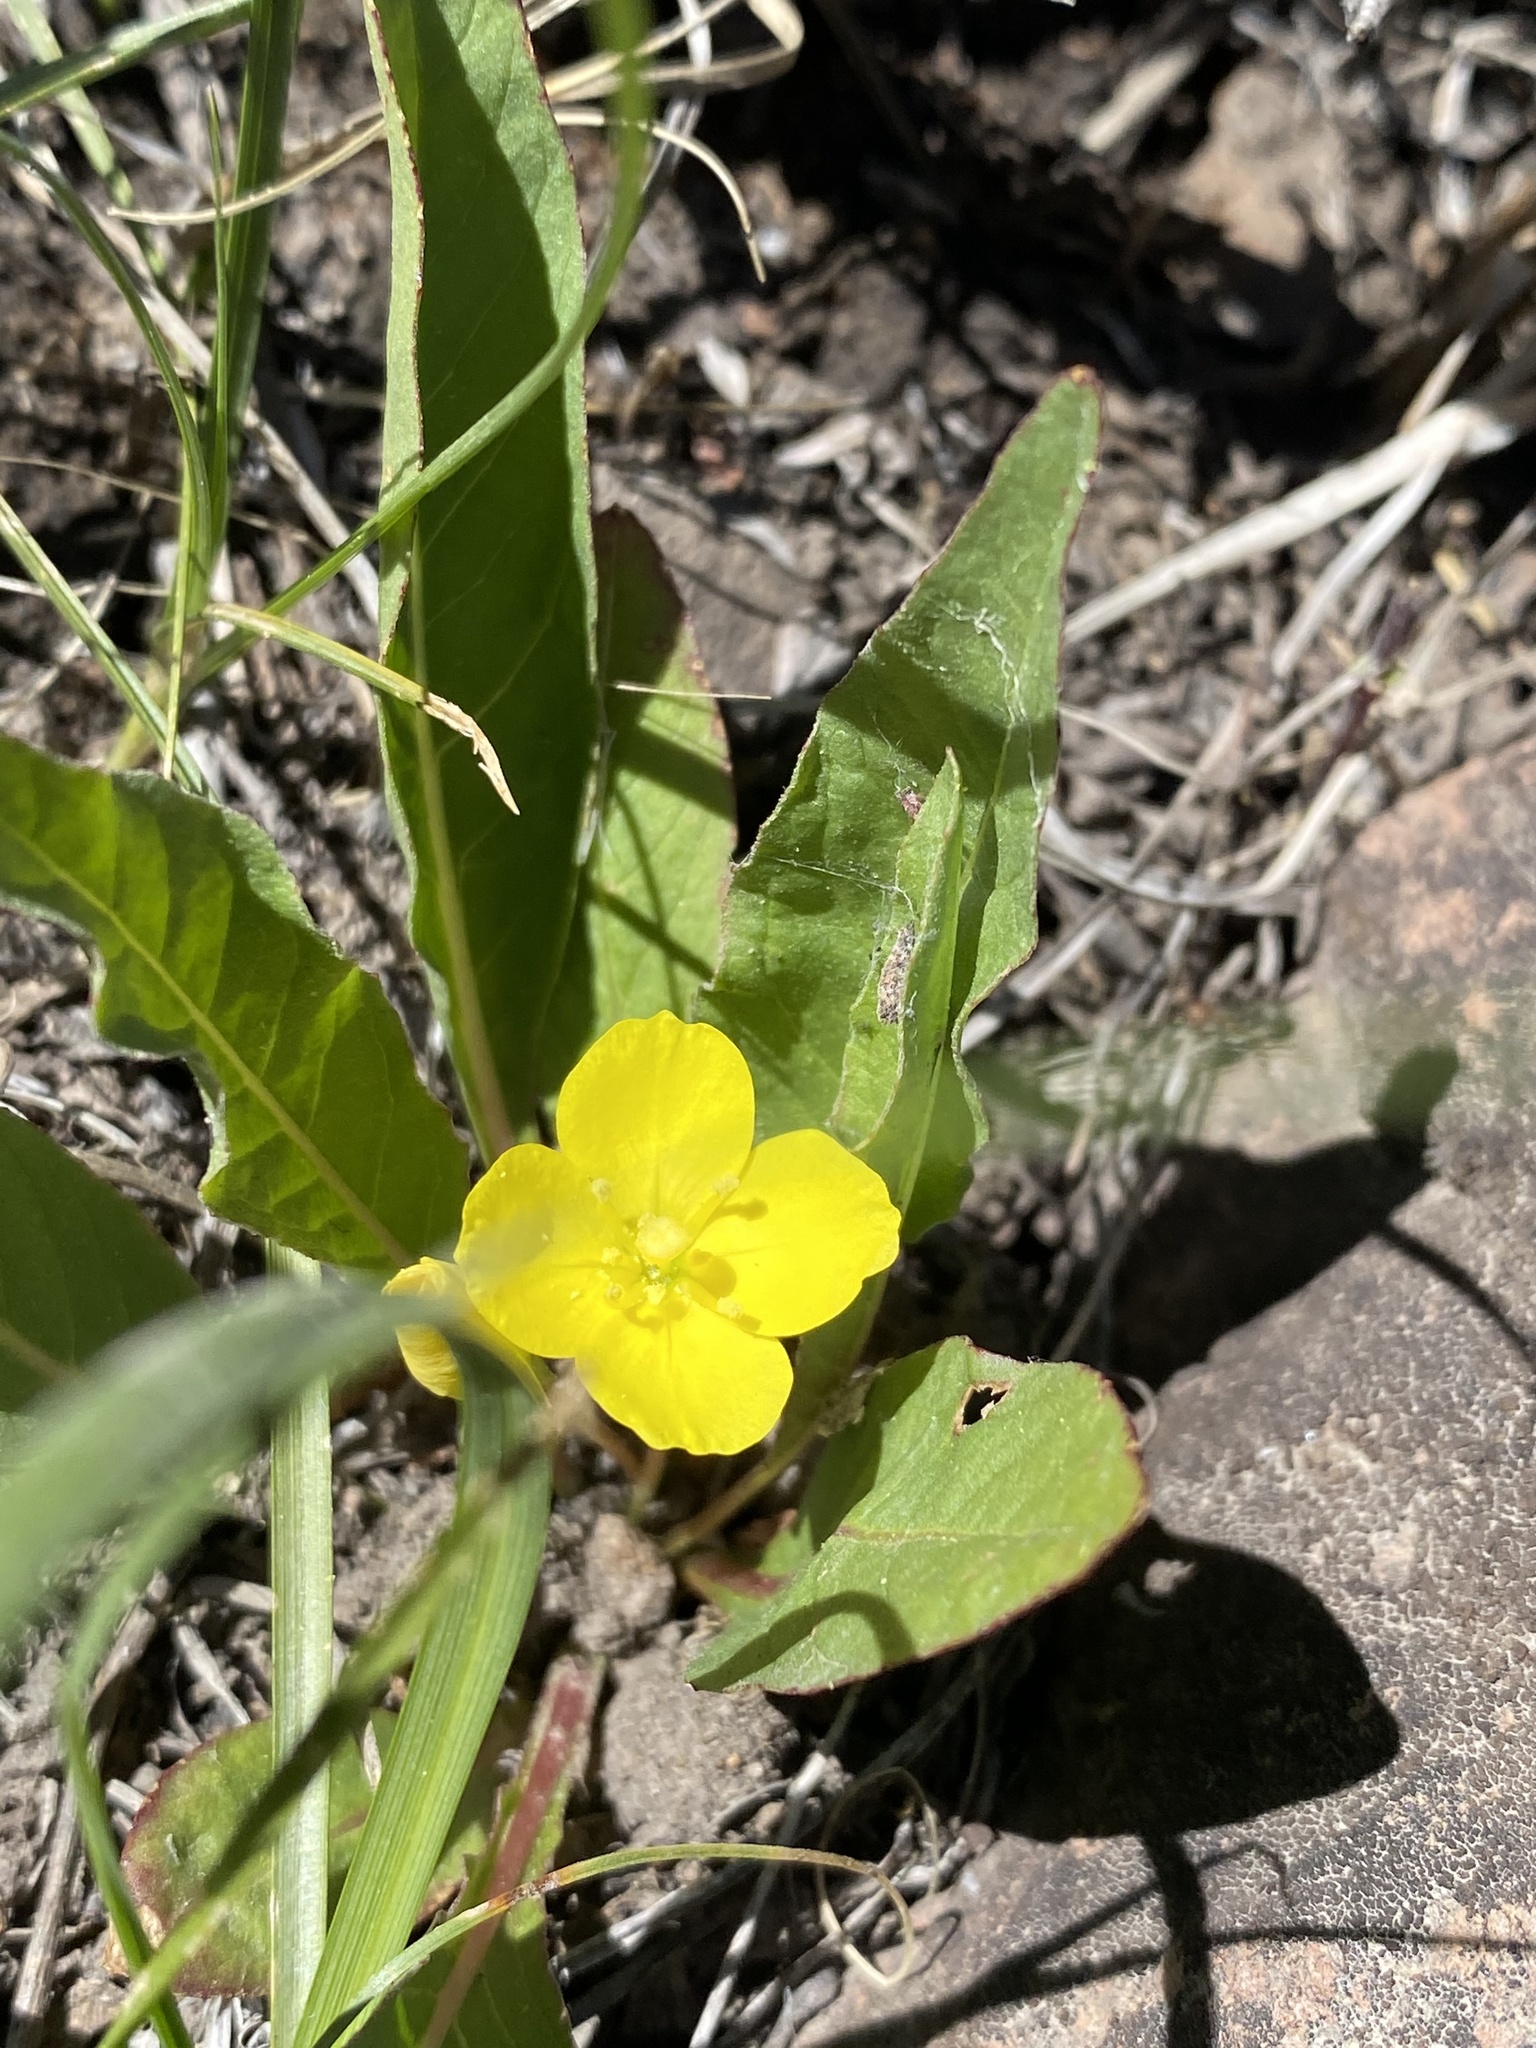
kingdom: Plantae
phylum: Tracheophyta
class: Magnoliopsida
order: Myrtales
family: Onagraceae
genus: Taraxia
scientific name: Taraxia subacaulis
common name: Diffuseflower evening primrose
